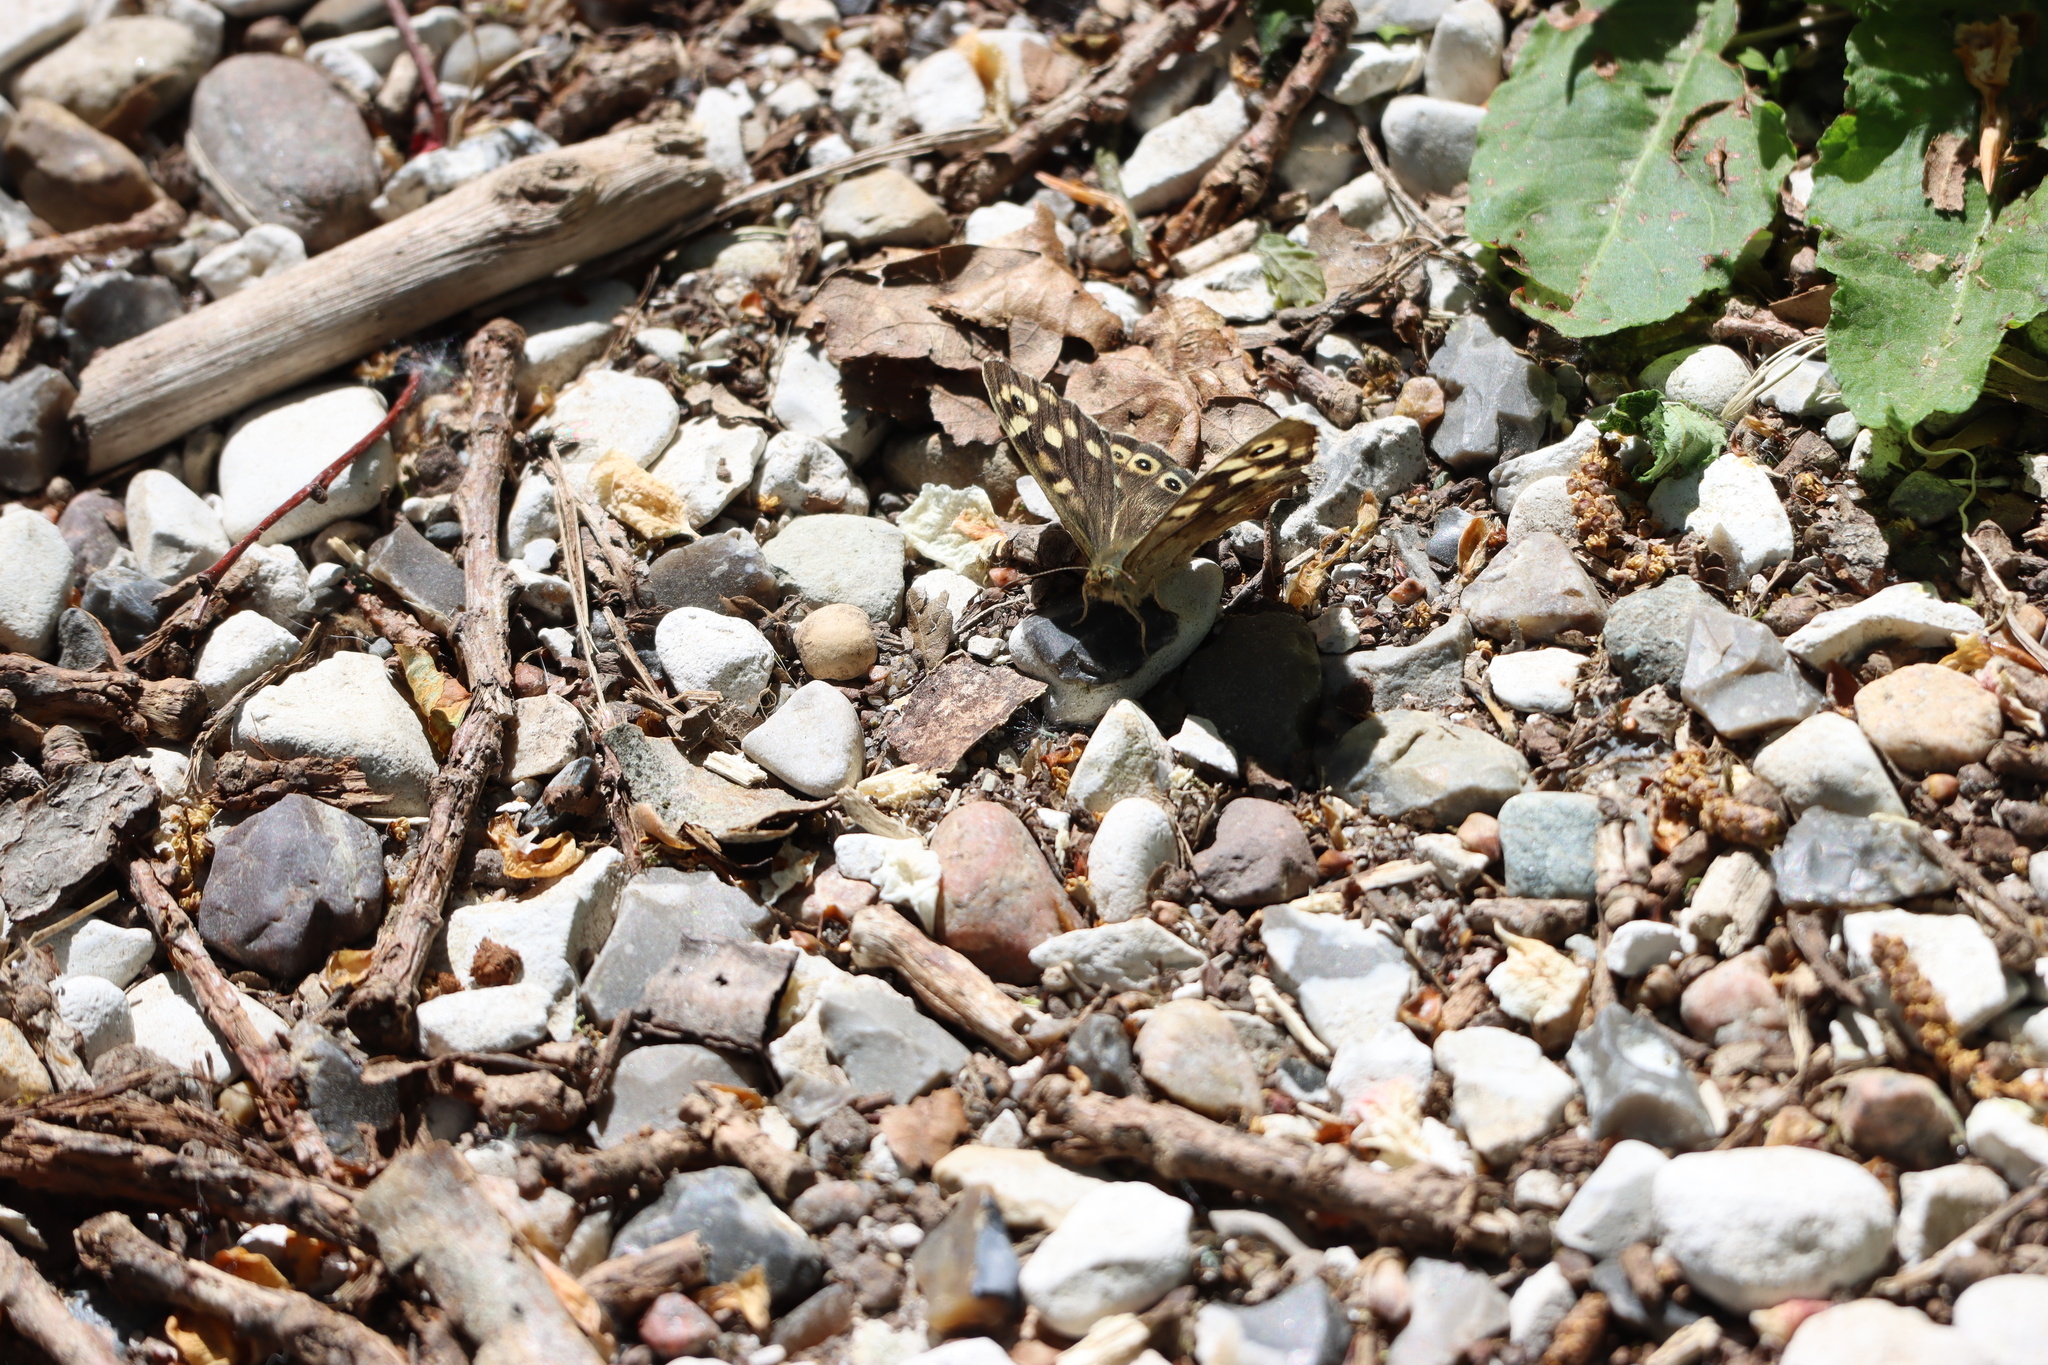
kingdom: Animalia
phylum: Arthropoda
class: Insecta
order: Lepidoptera
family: Nymphalidae
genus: Pararge
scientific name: Pararge aegeria
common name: Speckled wood
